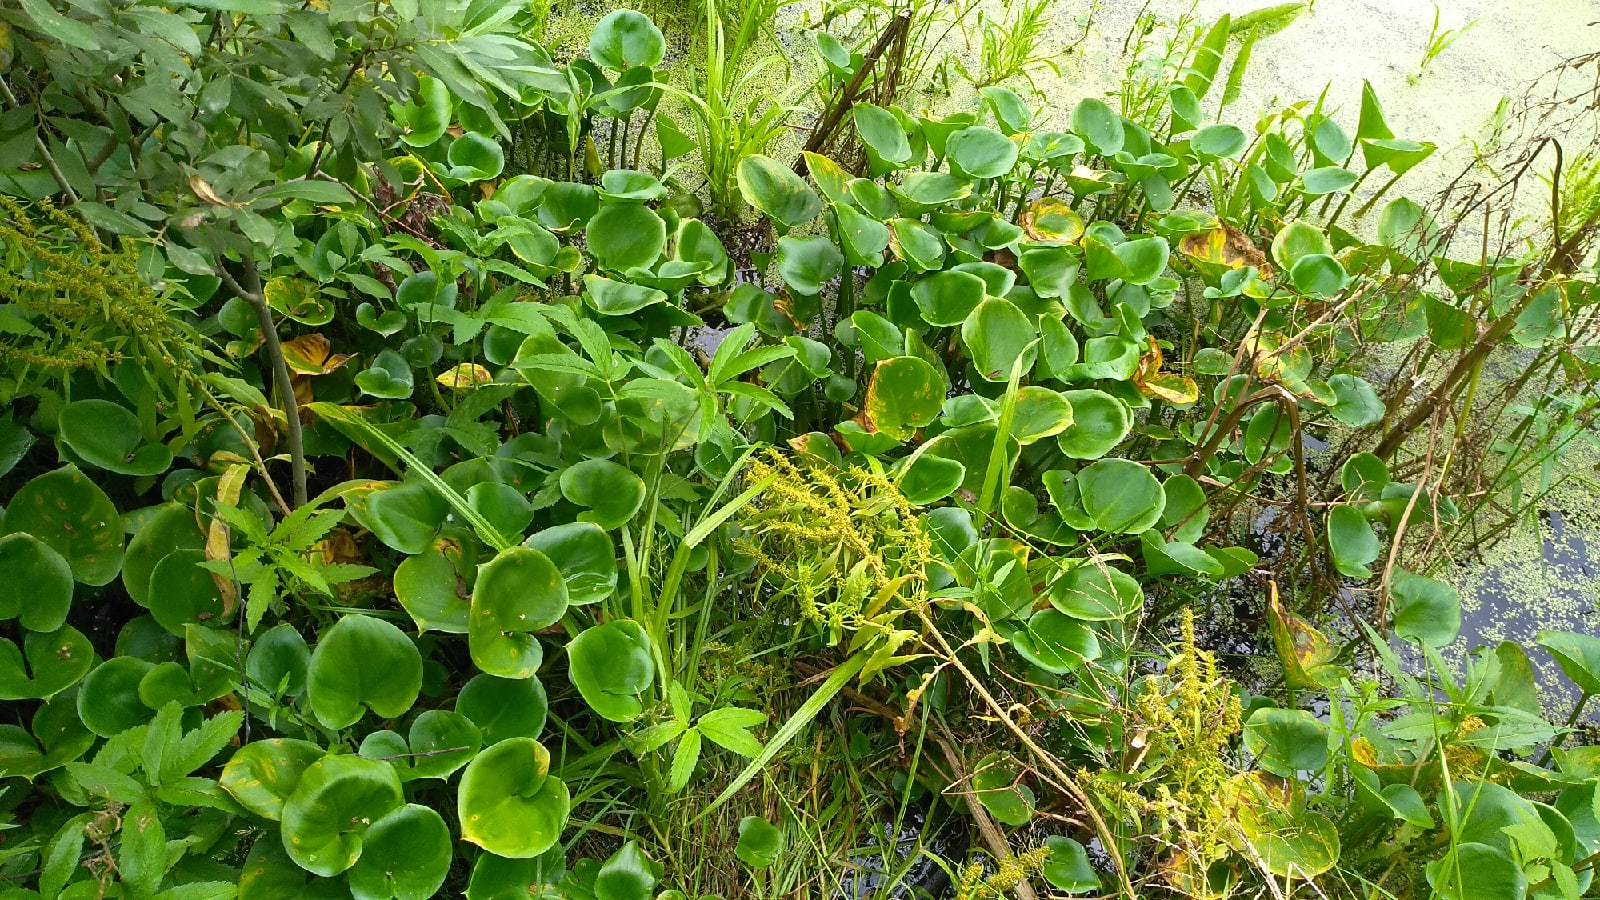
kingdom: Plantae
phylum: Tracheophyta
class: Liliopsida
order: Alismatales
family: Araceae
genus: Calla
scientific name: Calla palustris
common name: Bog arum
